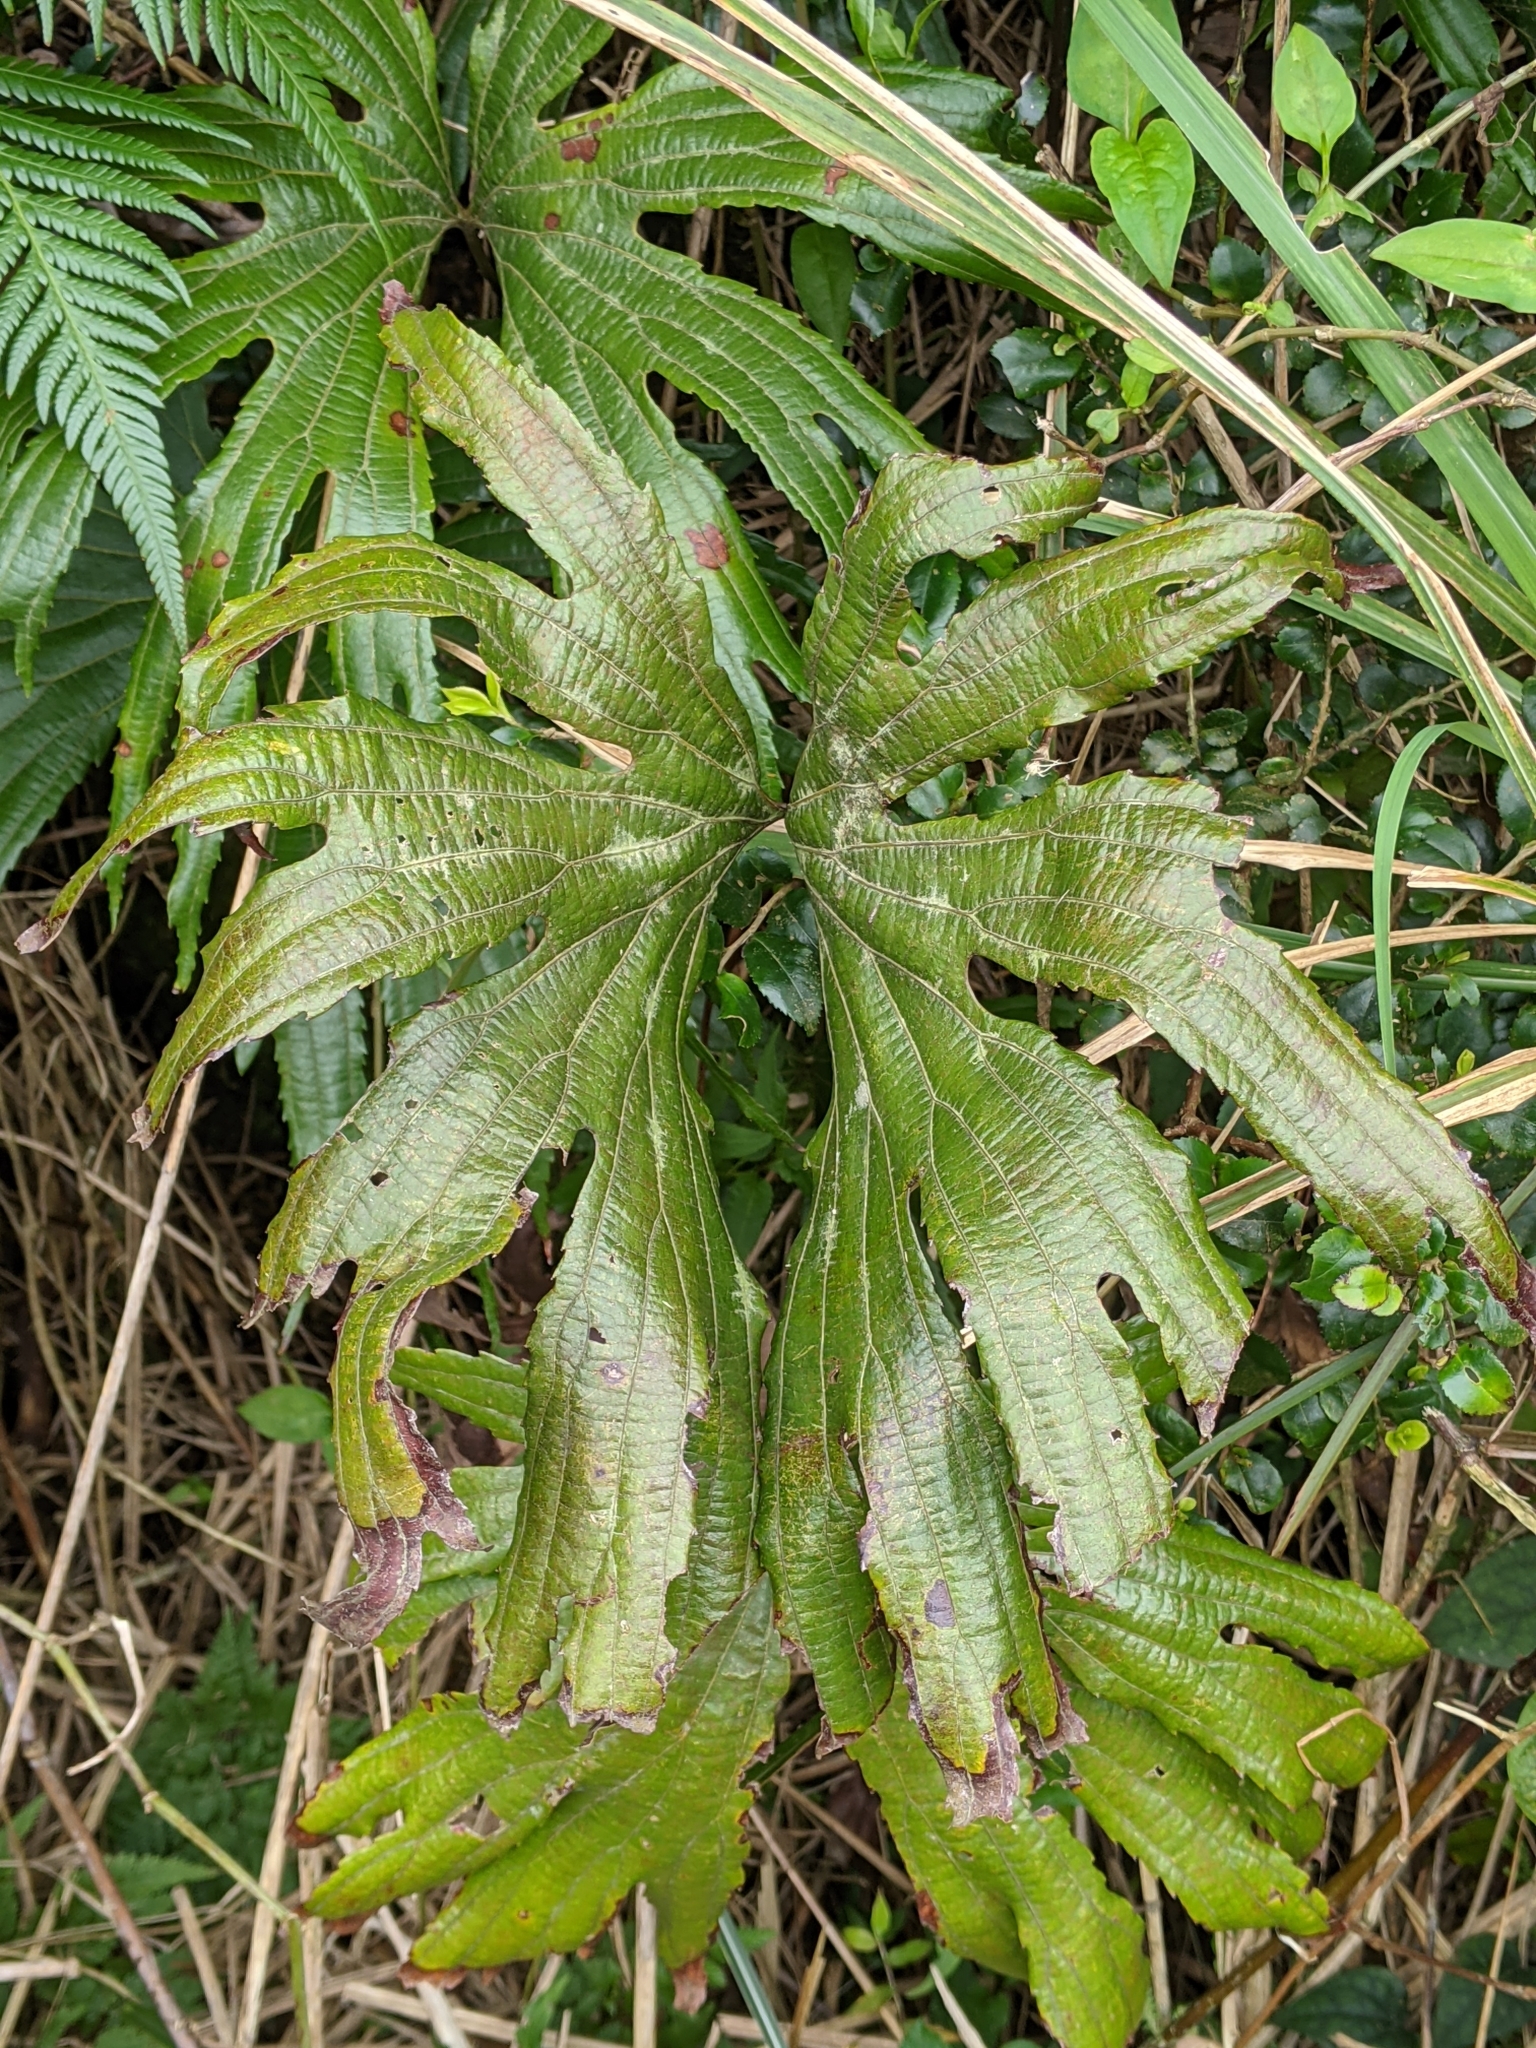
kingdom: Plantae
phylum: Tracheophyta
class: Polypodiopsida
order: Gleicheniales
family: Dipteridaceae
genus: Dipteris
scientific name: Dipteris conjugata
